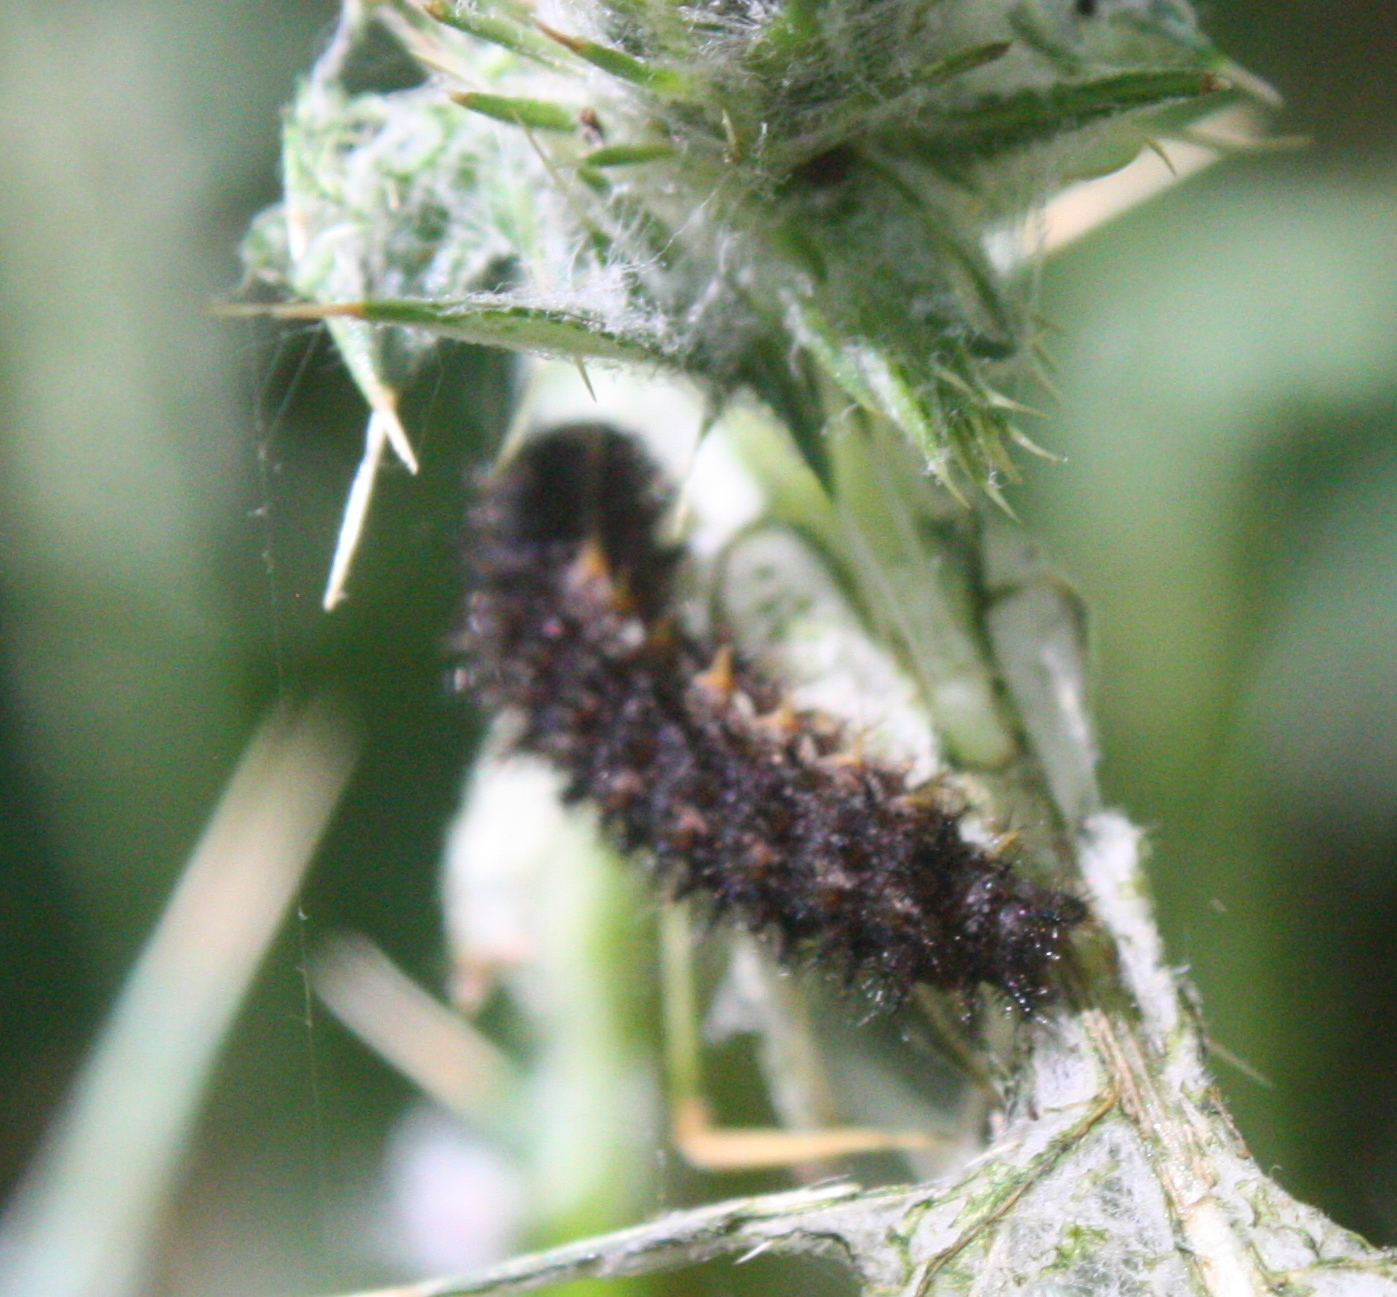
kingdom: Animalia
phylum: Arthropoda
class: Insecta
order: Lepidoptera
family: Nymphalidae
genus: Eresia
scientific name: Eresia aveyrona
